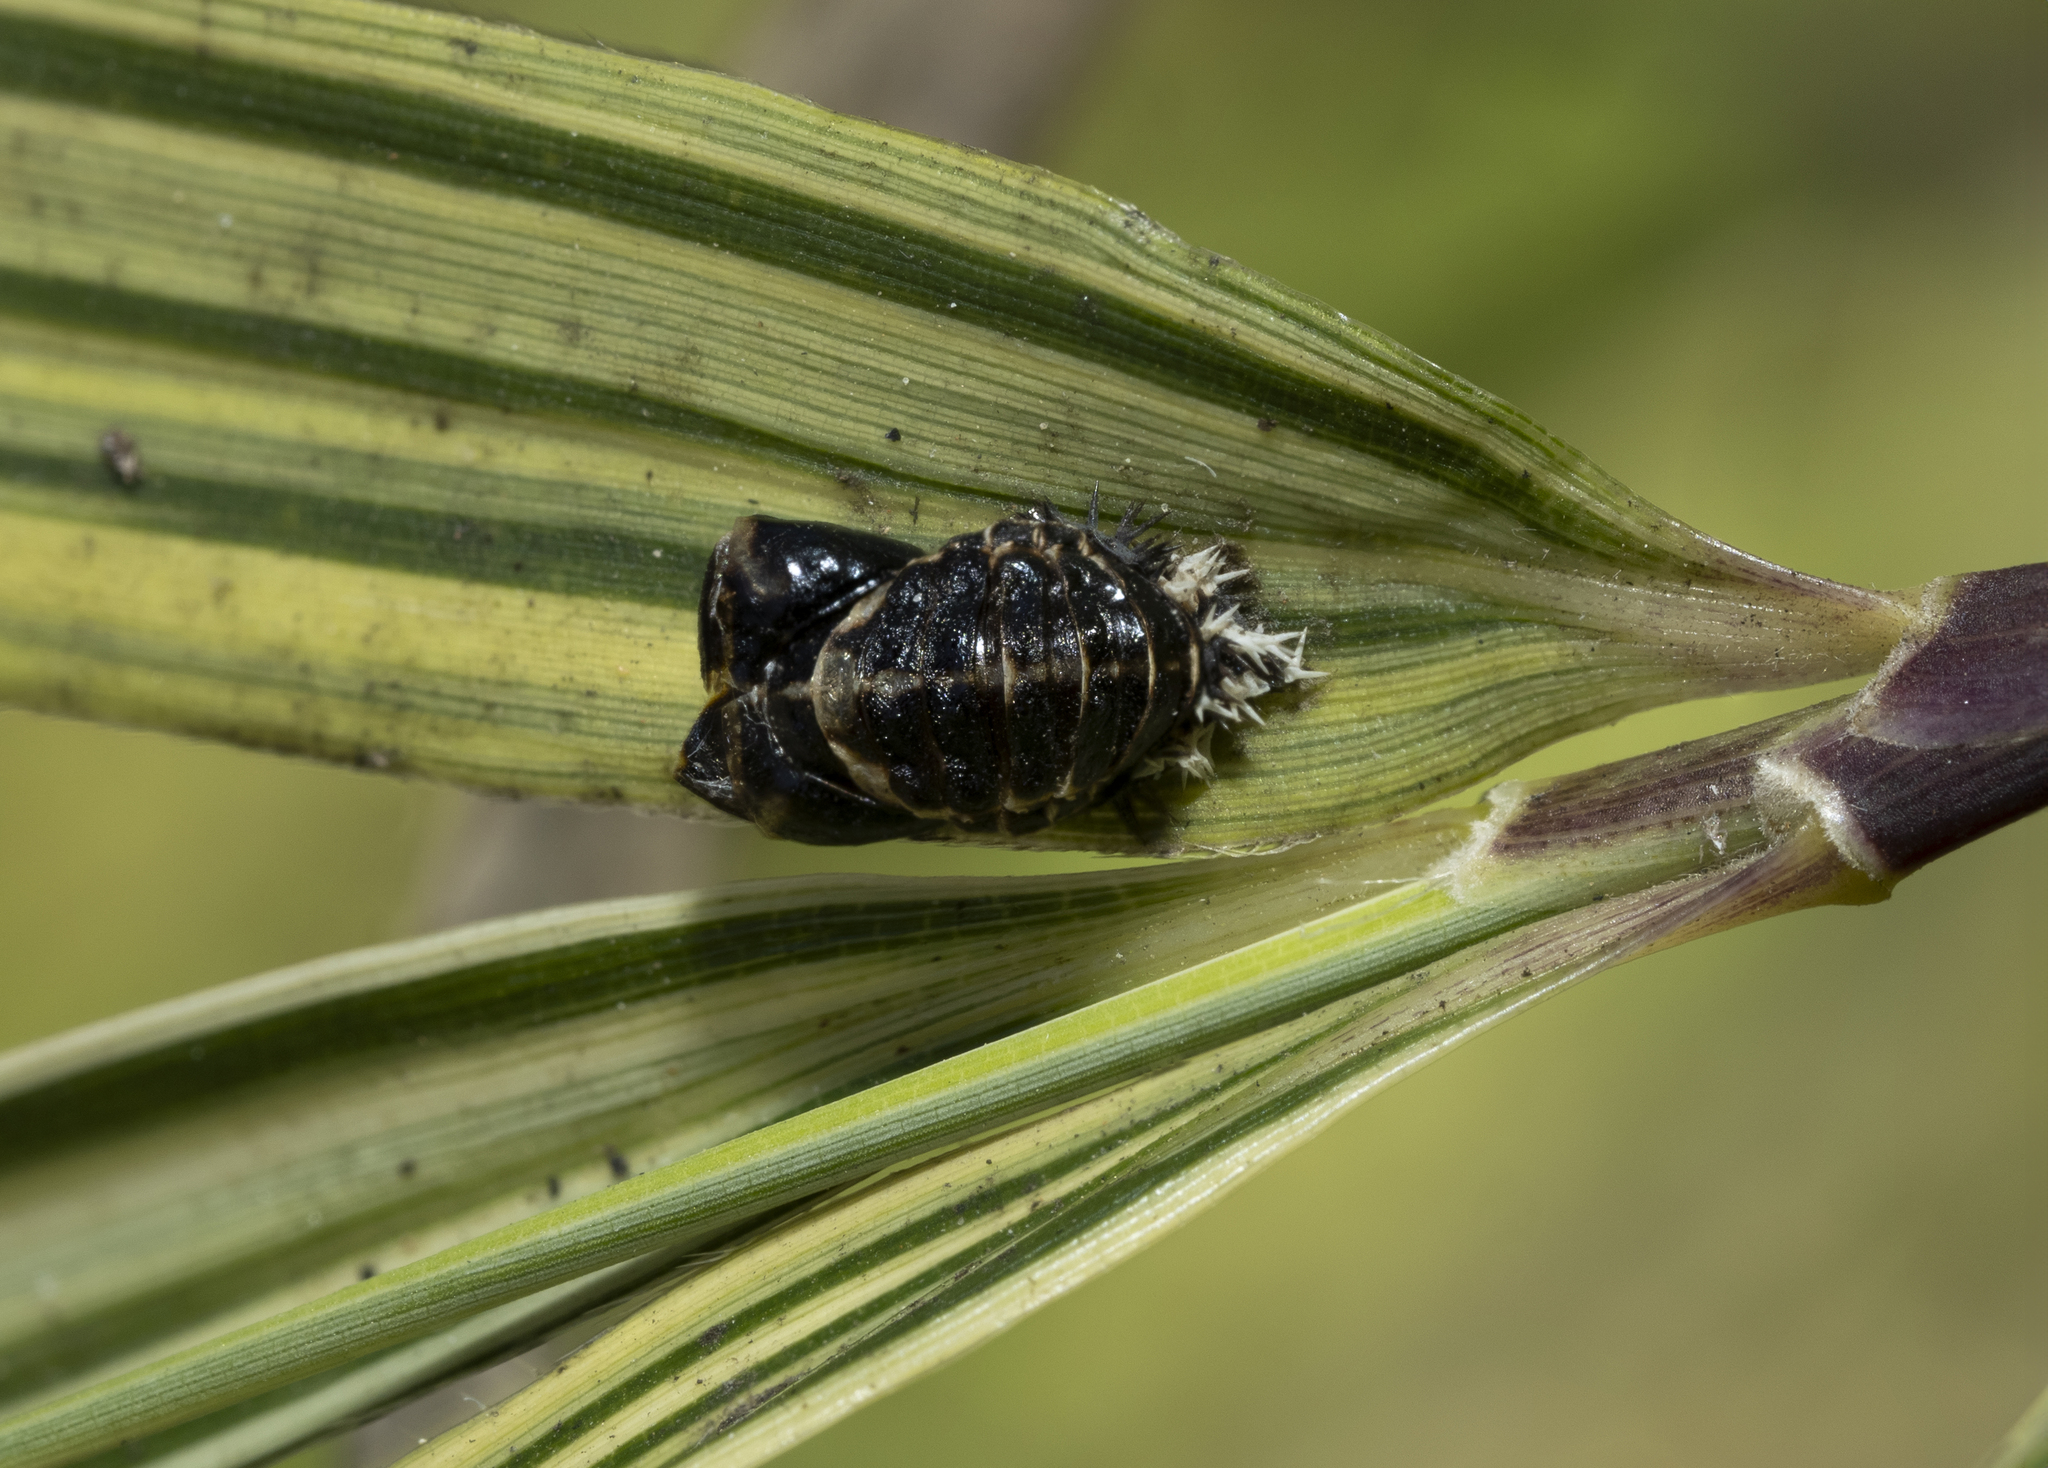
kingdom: Animalia
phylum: Arthropoda
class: Insecta
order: Coleoptera
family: Coccinellidae
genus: Harmonia
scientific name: Harmonia axyridis
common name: Harlequin ladybird
